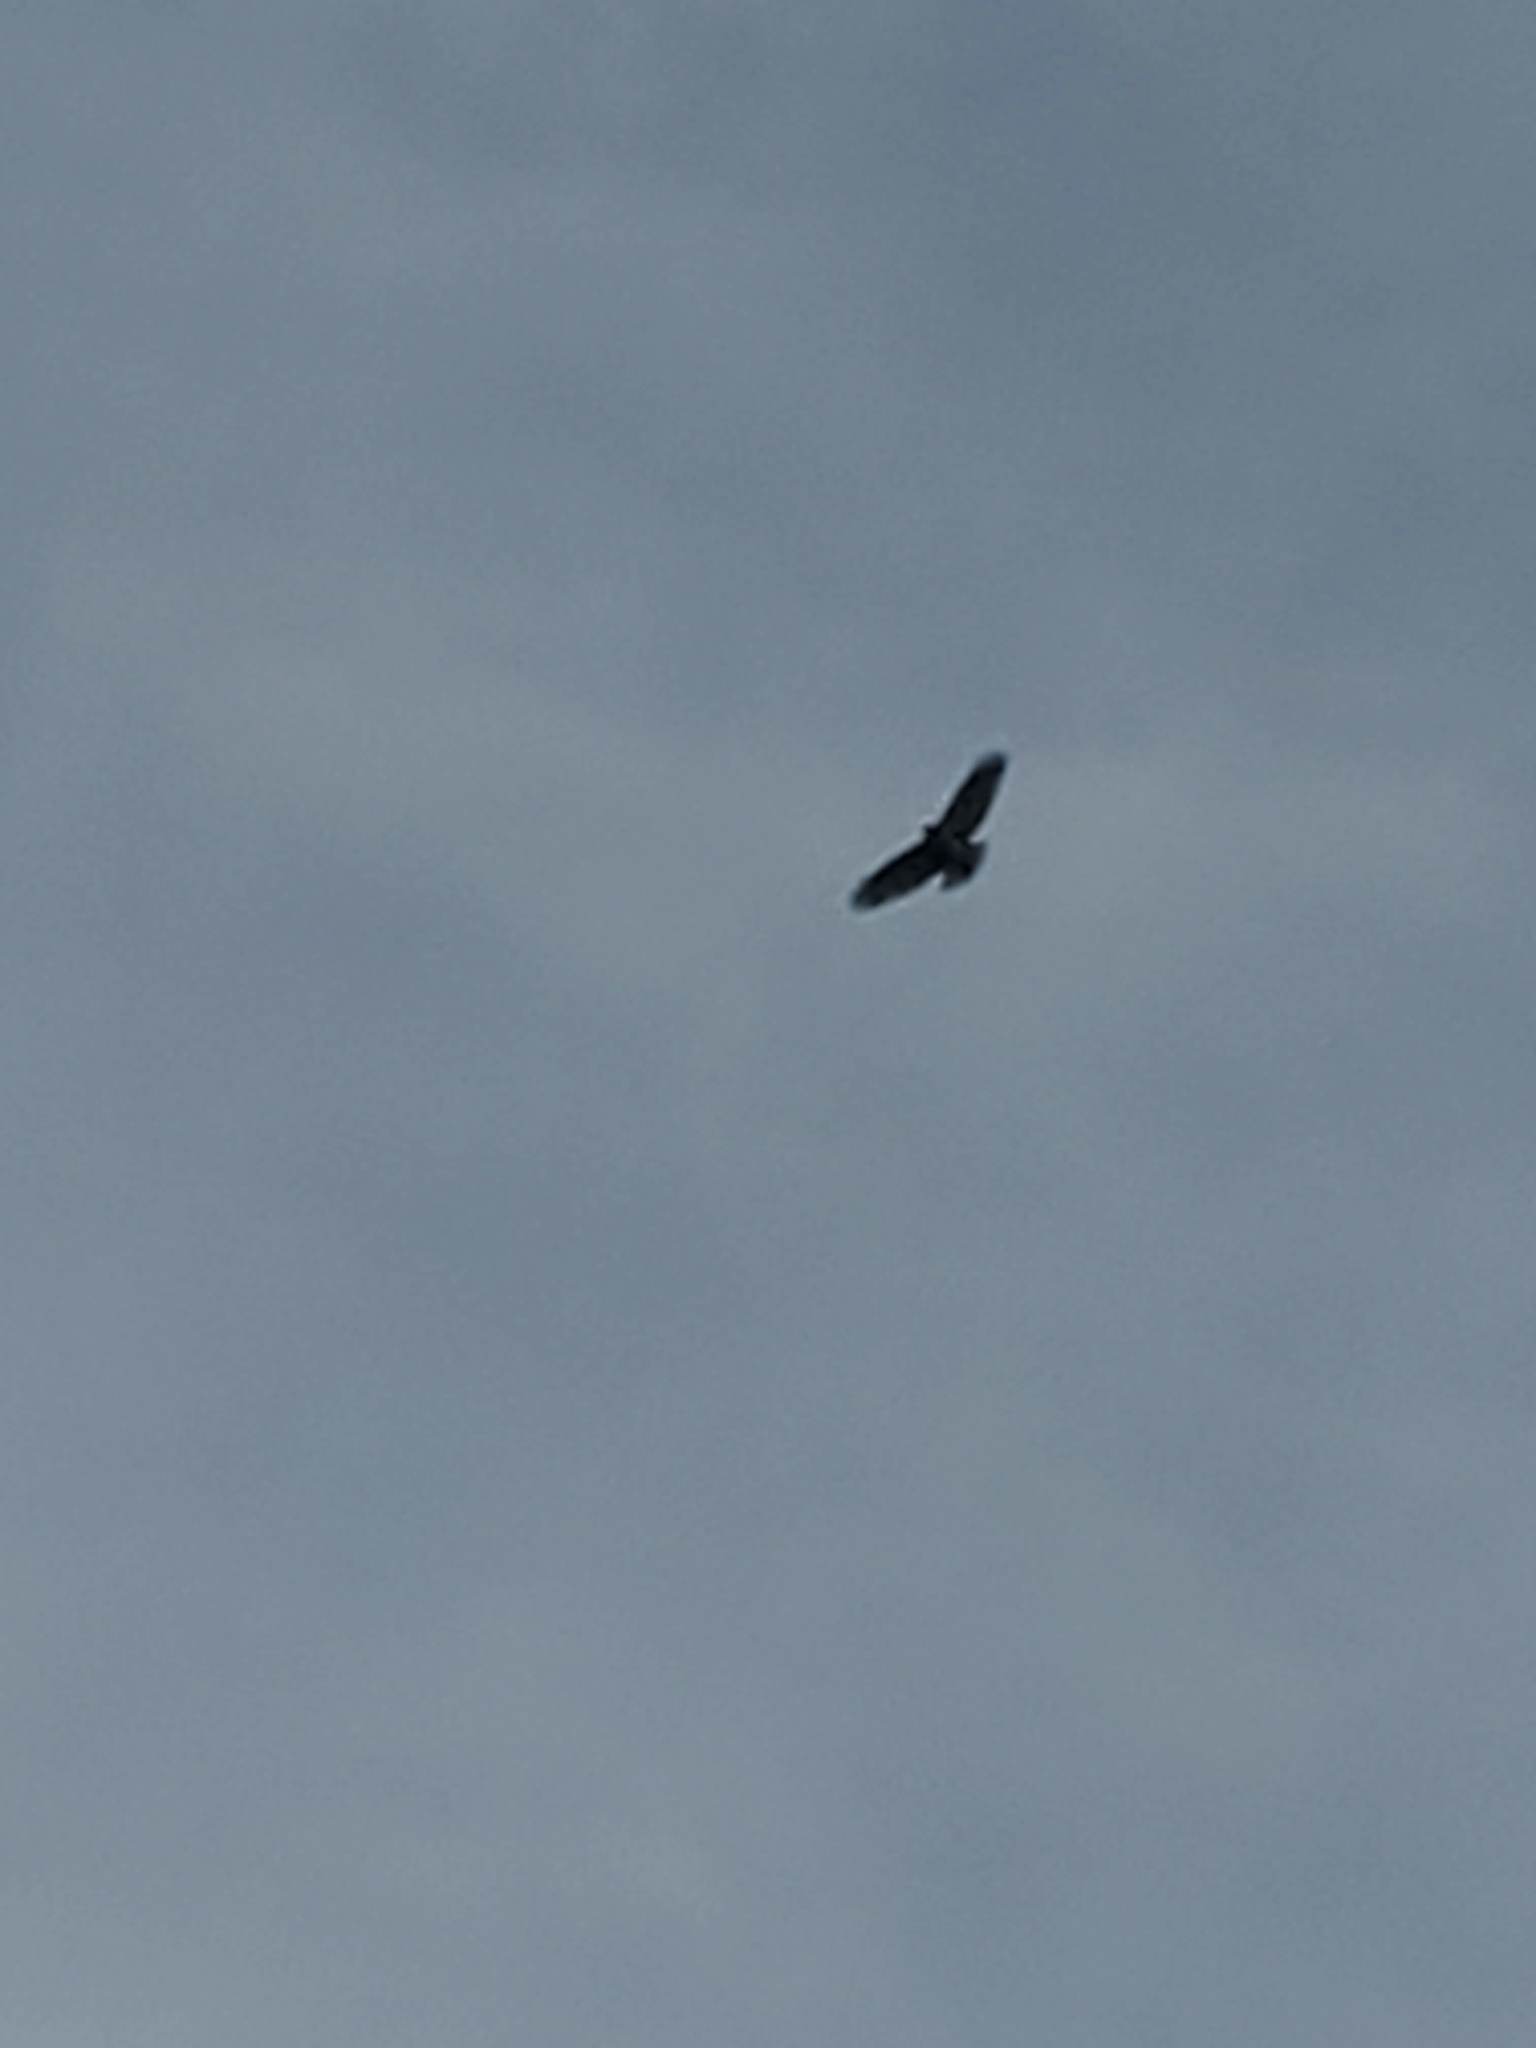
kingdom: Animalia
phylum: Chordata
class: Aves
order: Accipitriformes
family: Accipitridae
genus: Buteo
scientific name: Buteo jamaicensis
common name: Red-tailed hawk
